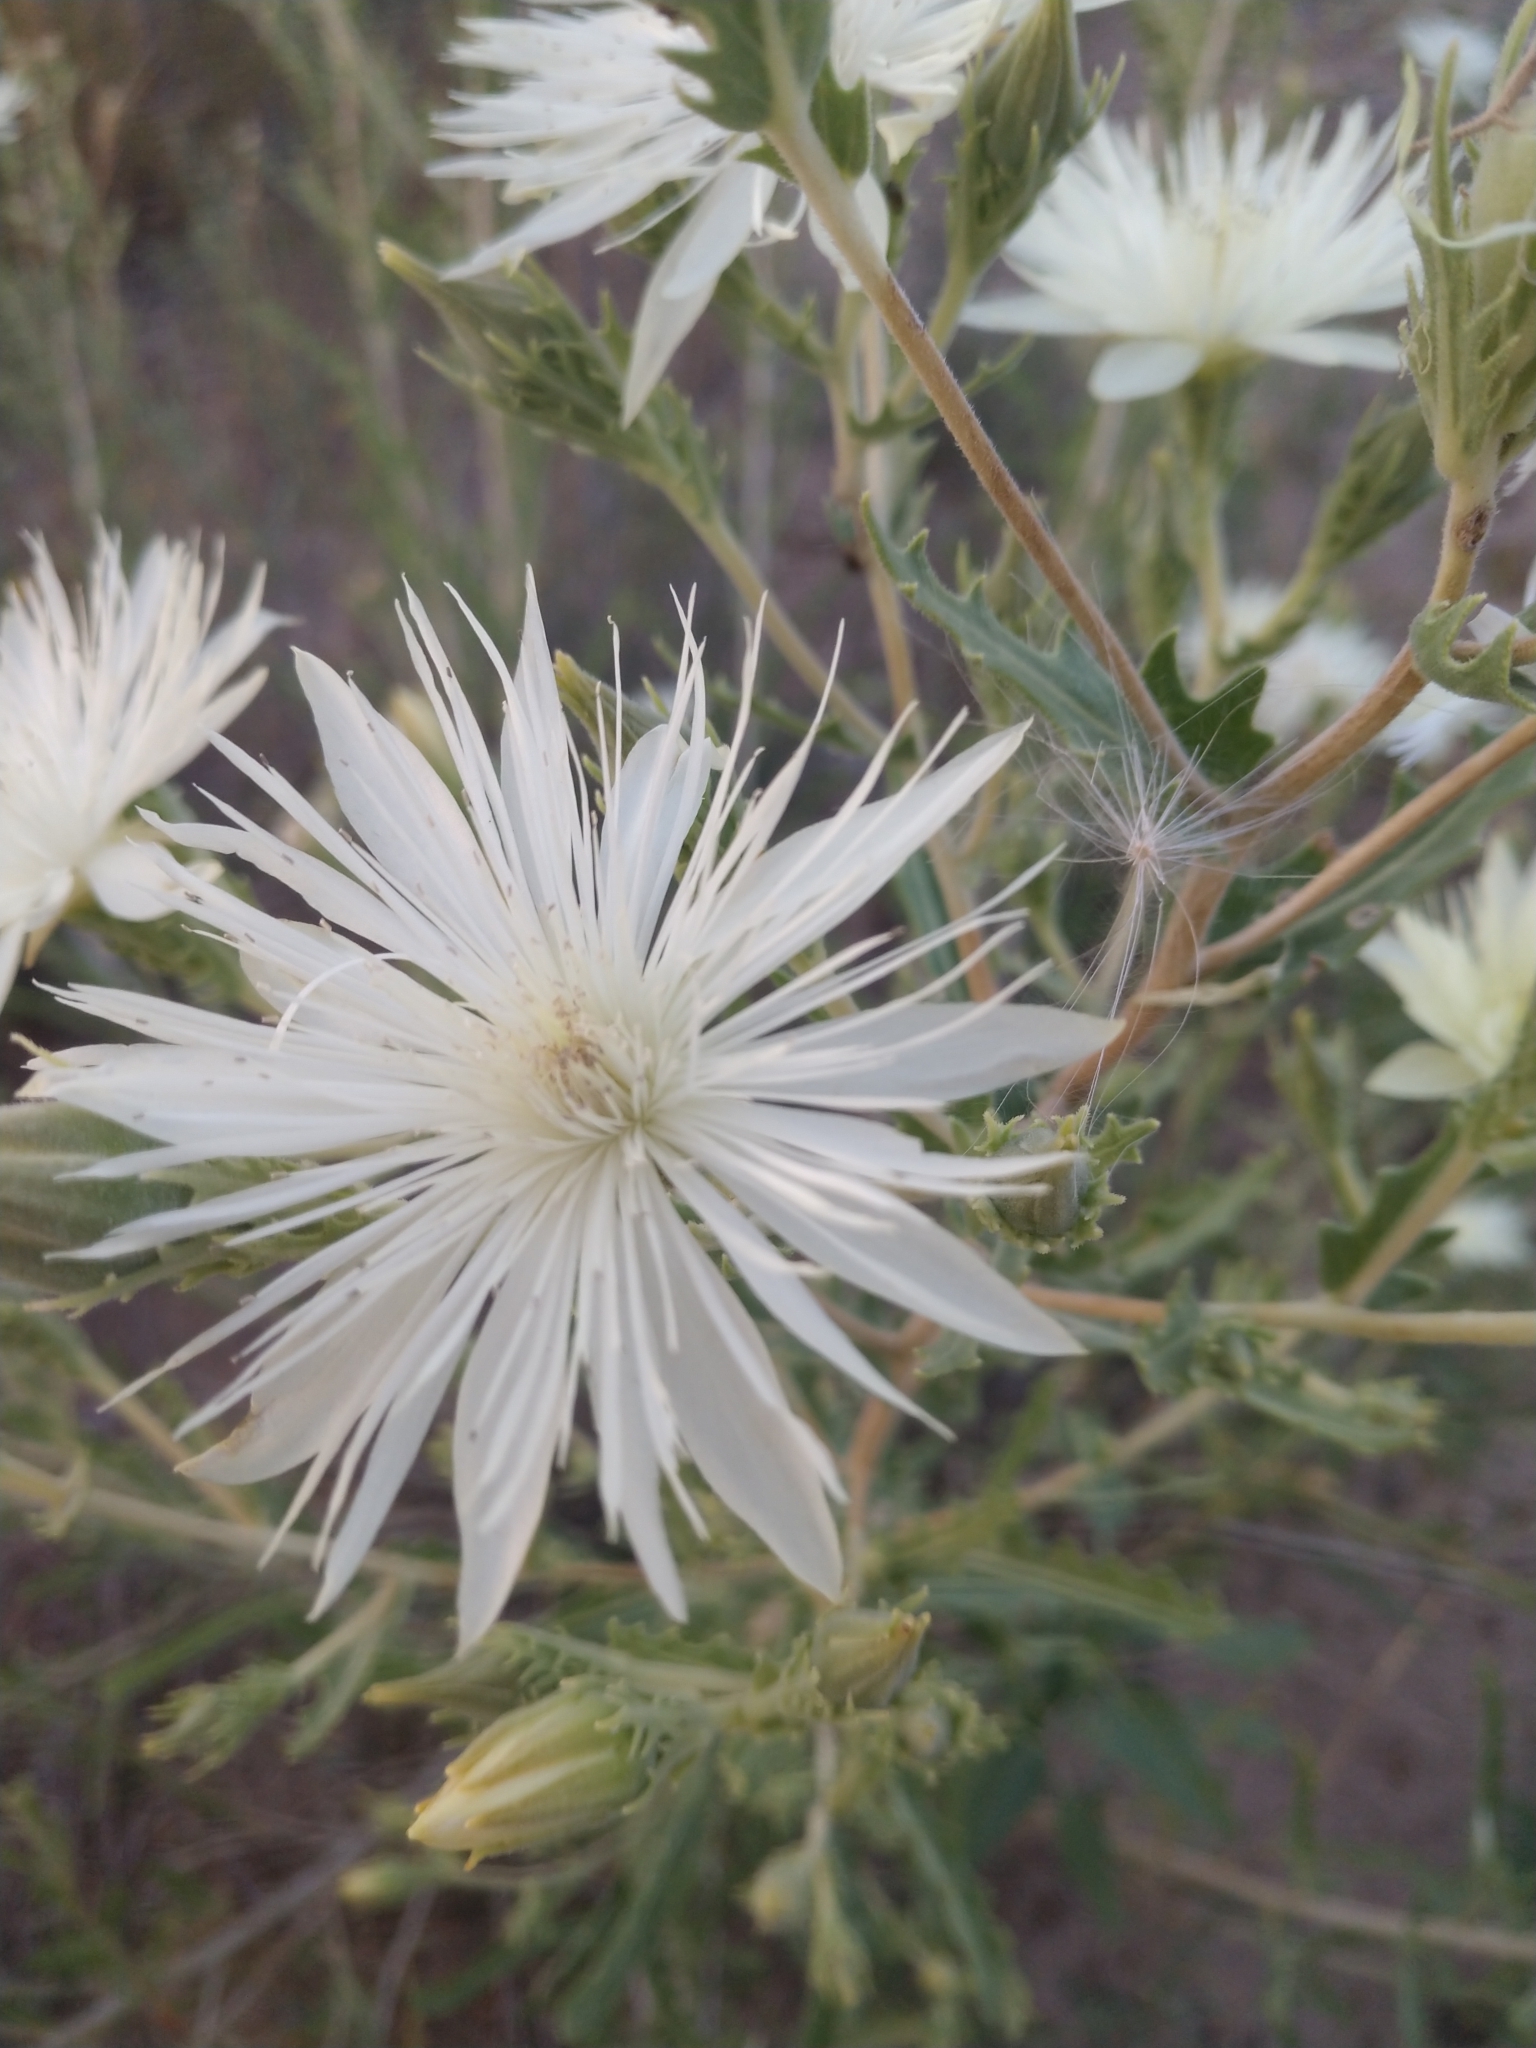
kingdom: Plantae
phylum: Tracheophyta
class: Magnoliopsida
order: Cornales
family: Loasaceae
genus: Mentzelia
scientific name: Mentzelia nuda
